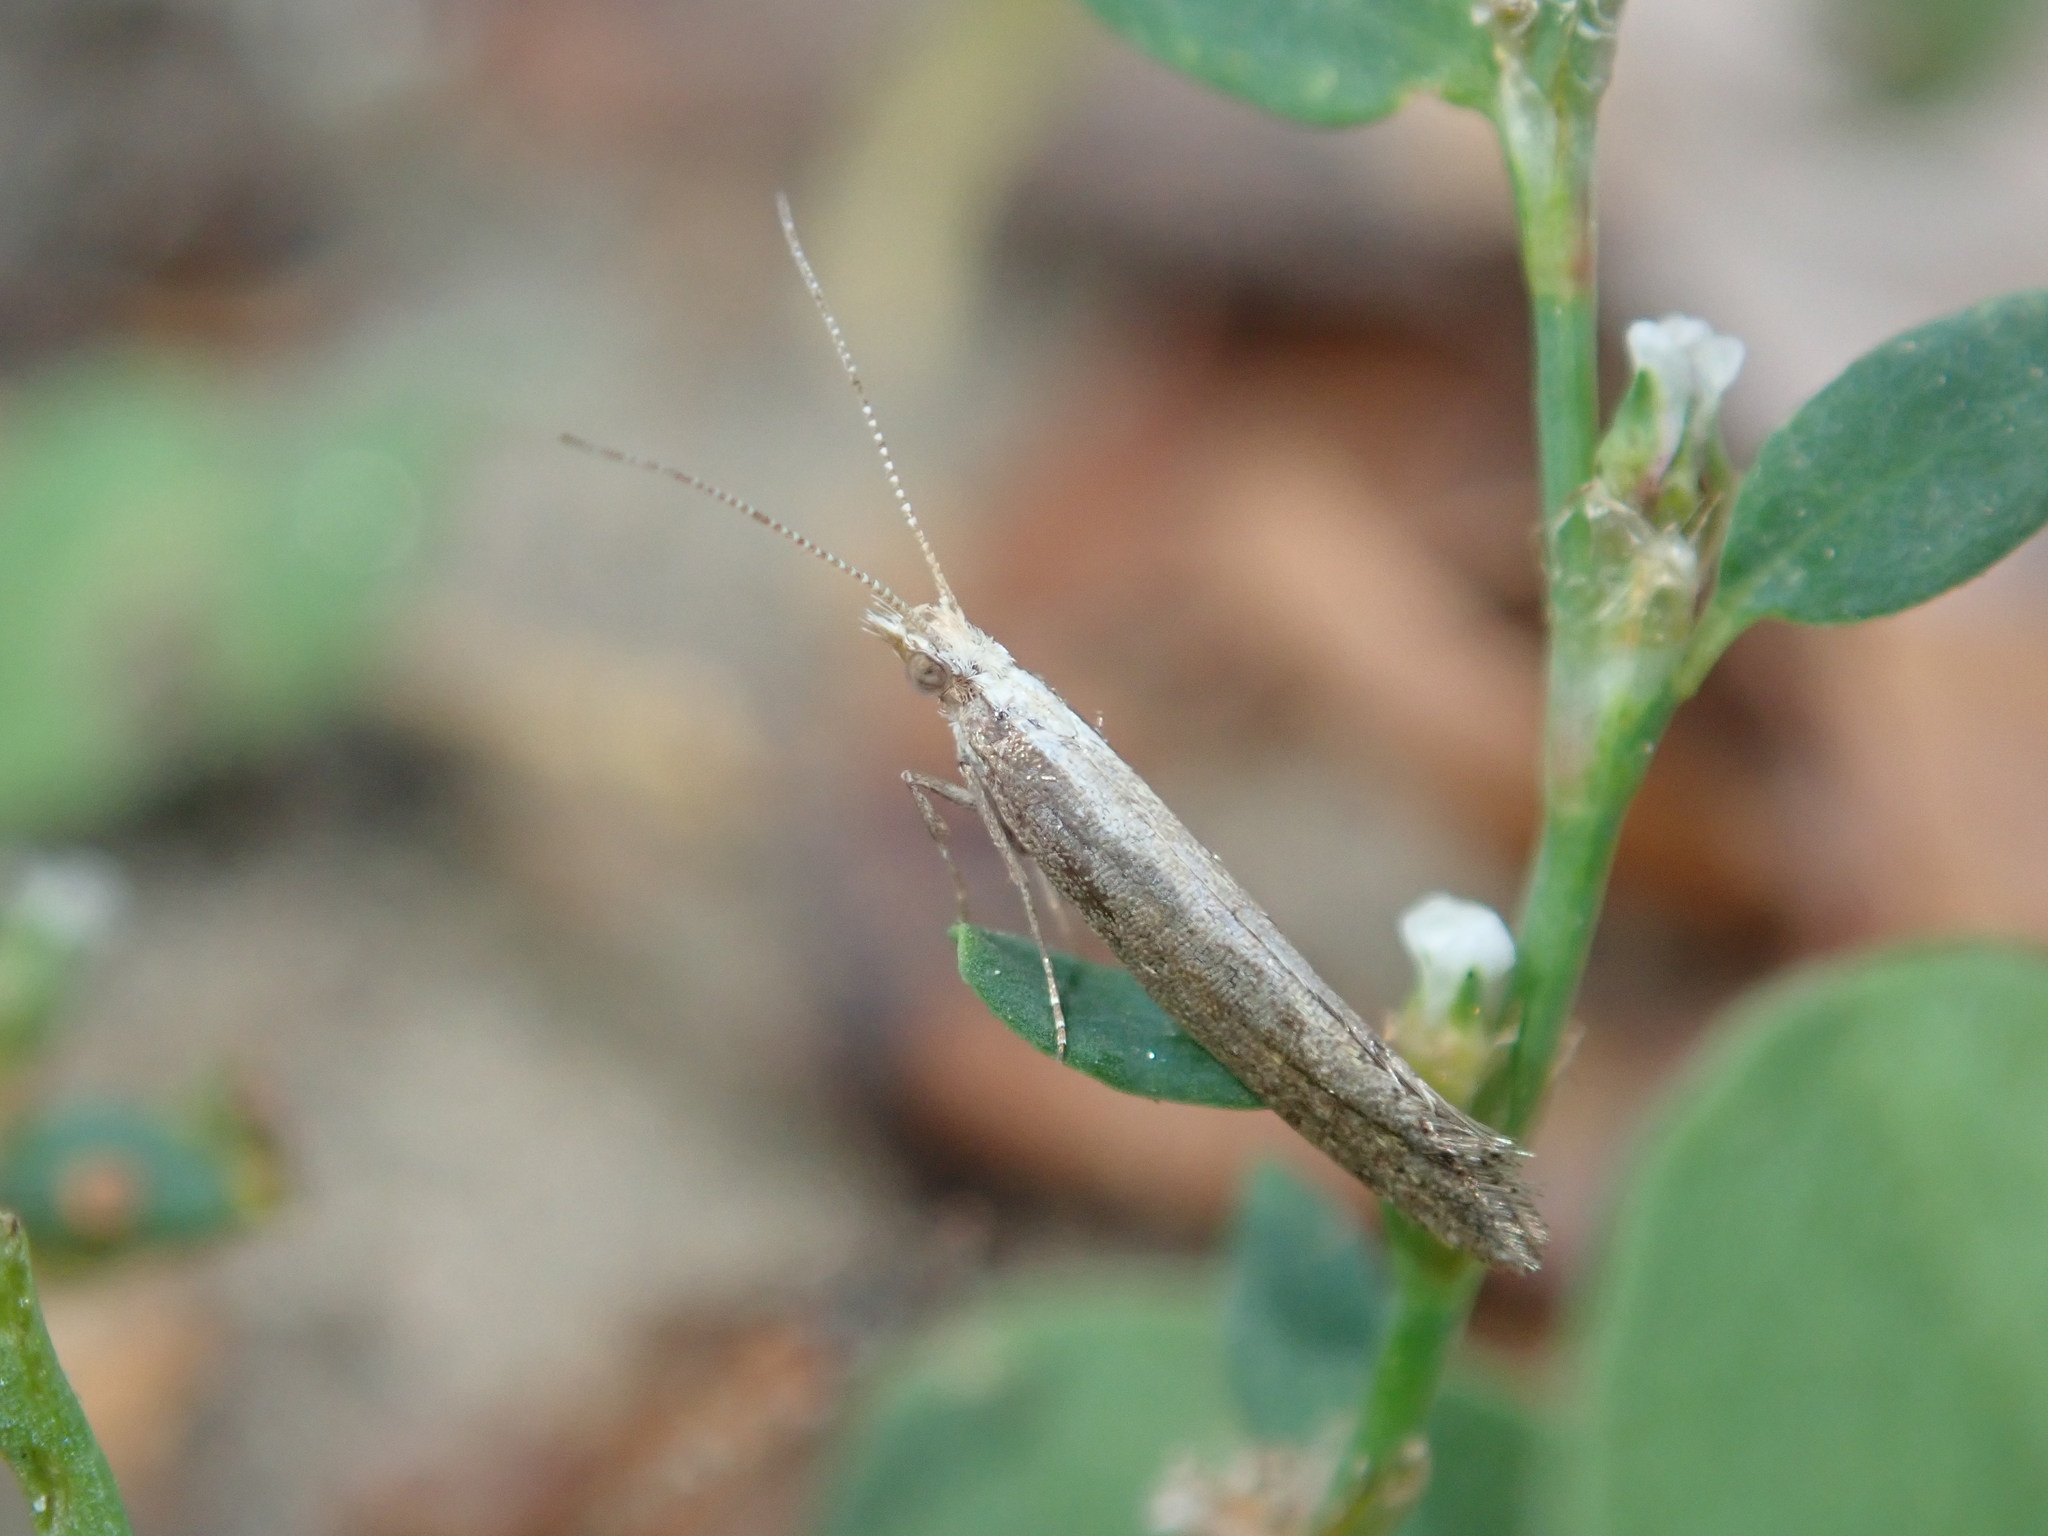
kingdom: Animalia
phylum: Arthropoda
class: Insecta
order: Lepidoptera
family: Plutellidae
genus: Plutella
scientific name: Plutella xylostella
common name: Diamond-back moth
